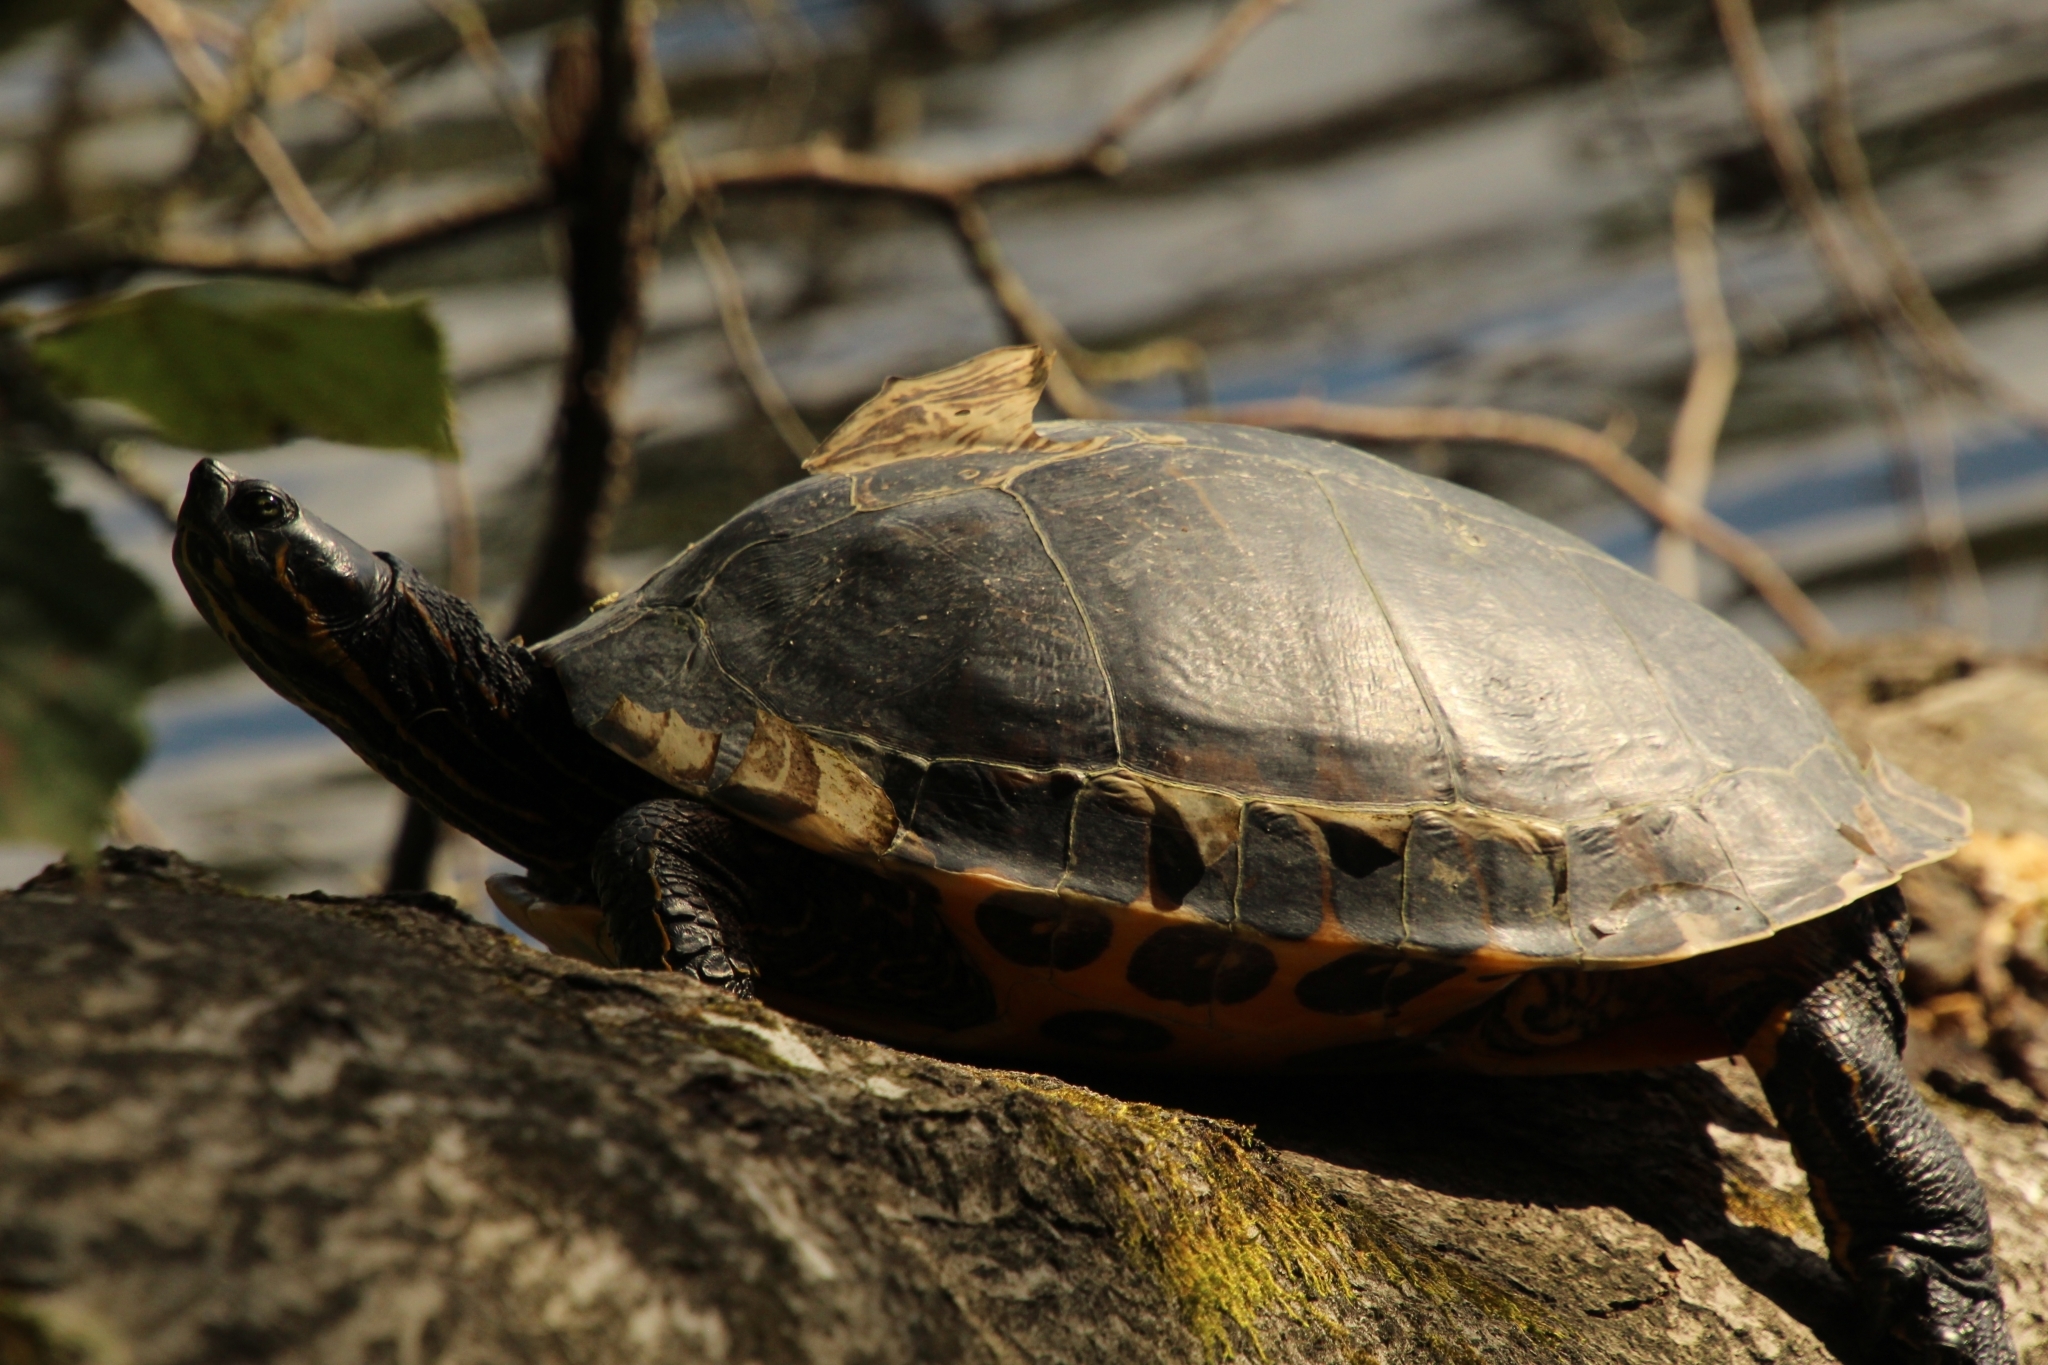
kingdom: Animalia
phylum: Chordata
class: Testudines
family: Emydidae
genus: Trachemys
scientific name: Trachemys scripta
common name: Slider
